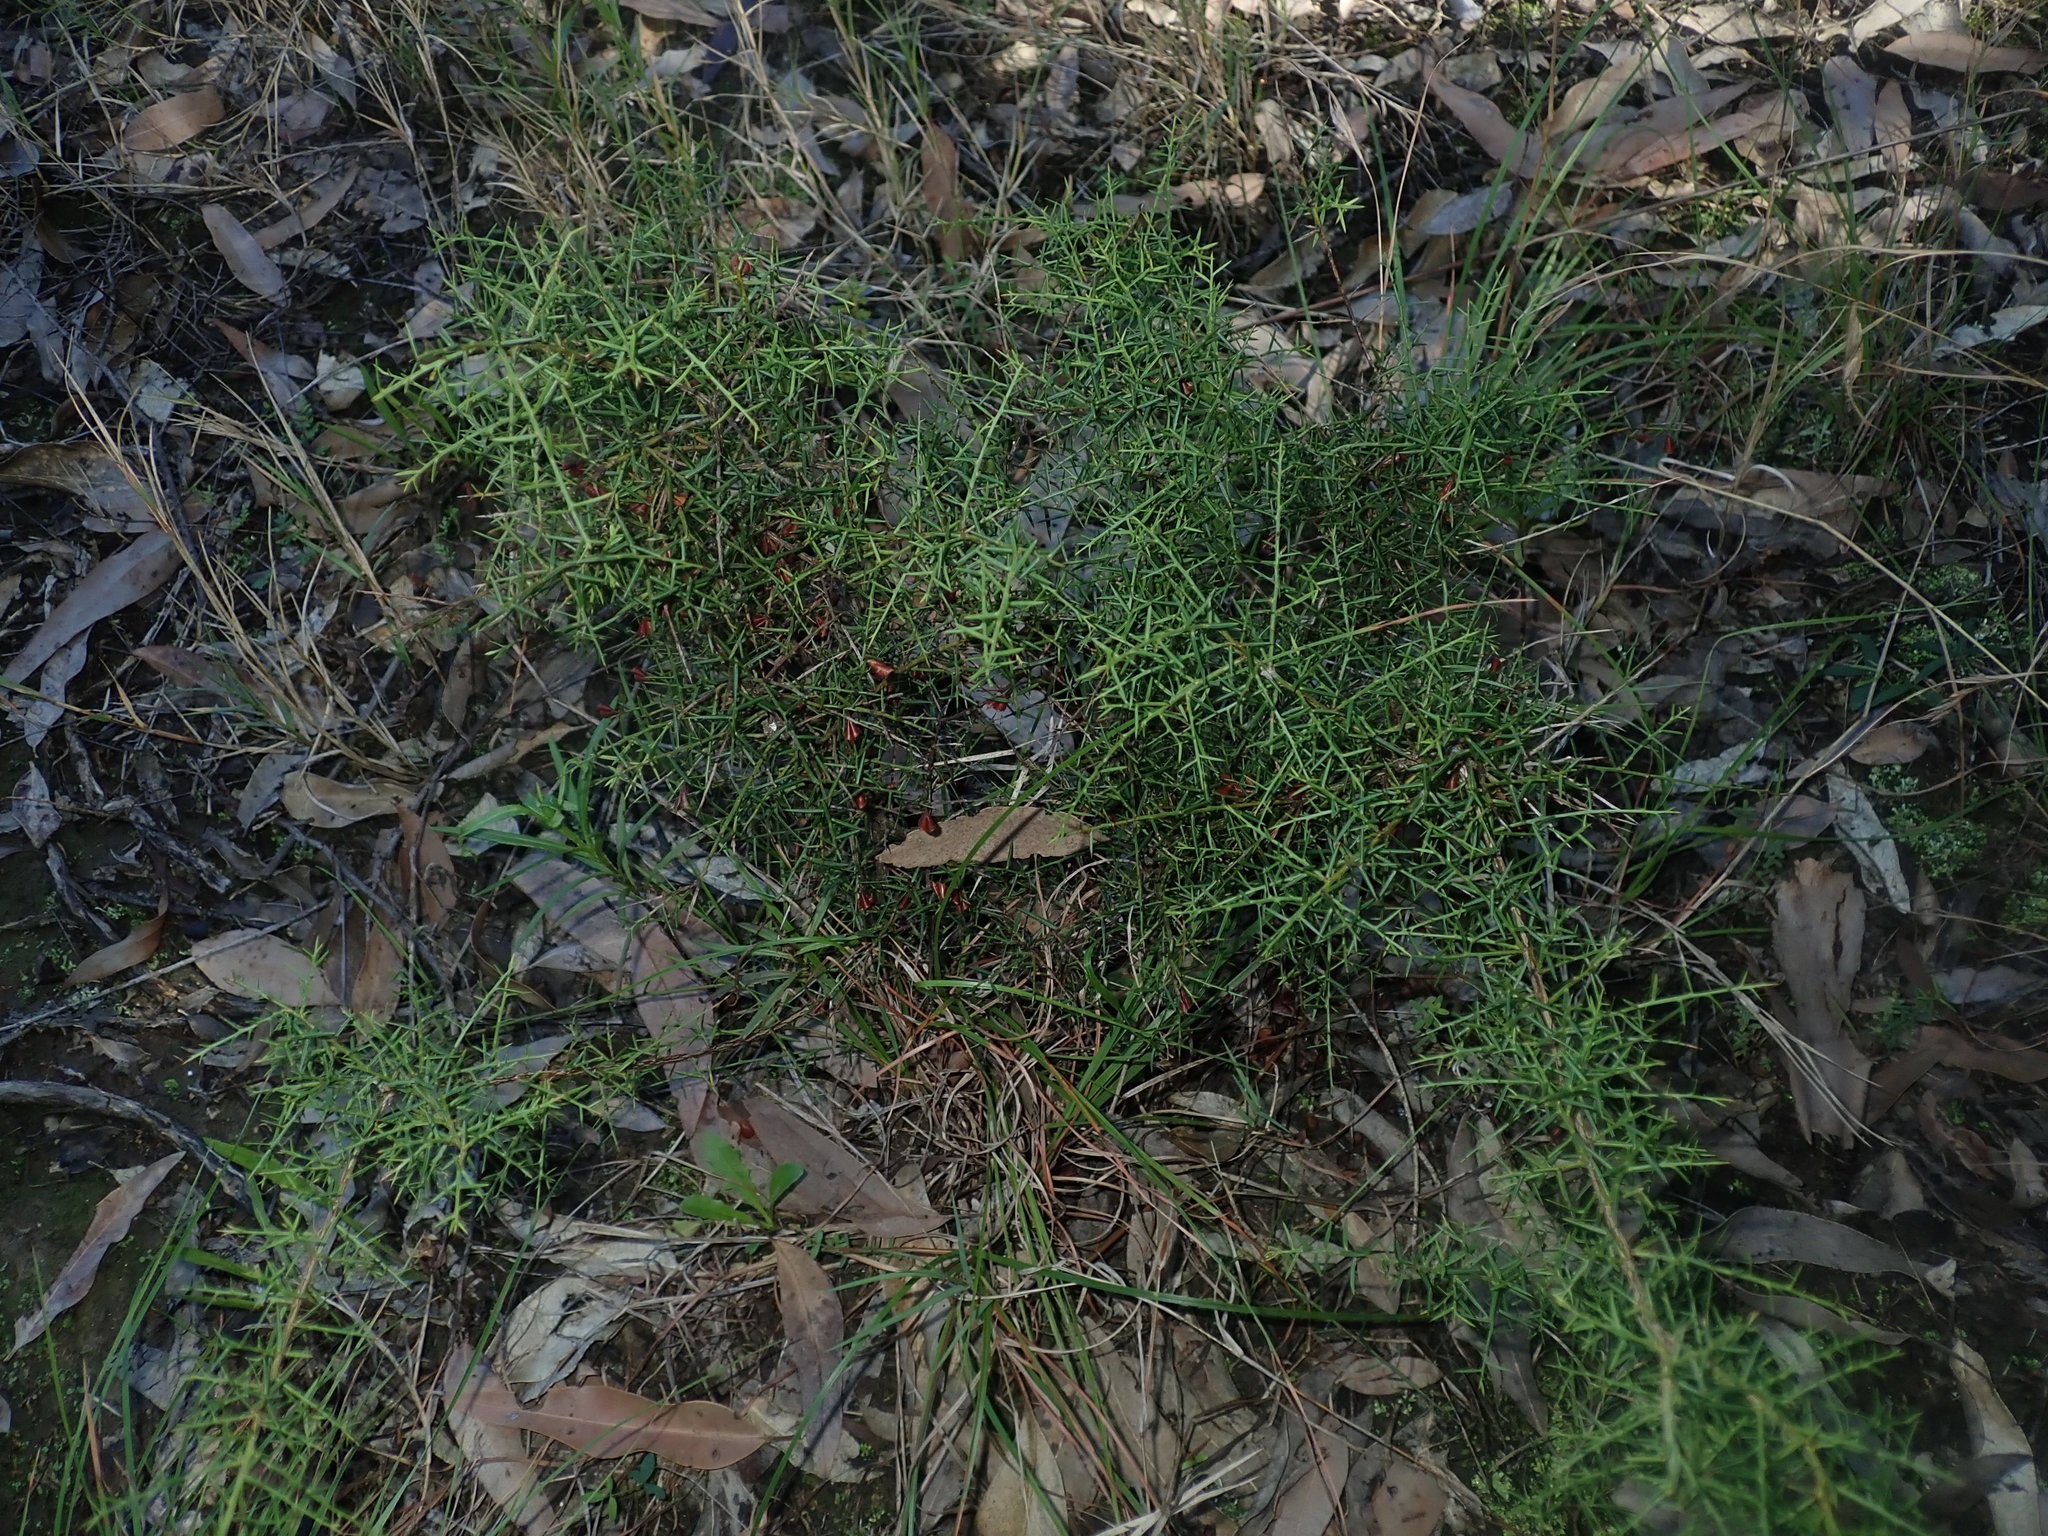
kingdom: Plantae
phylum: Tracheophyta
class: Magnoliopsida
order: Fabales
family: Fabaceae
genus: Daviesia
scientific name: Daviesia ulicifolia
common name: Gorse bitter-pea
